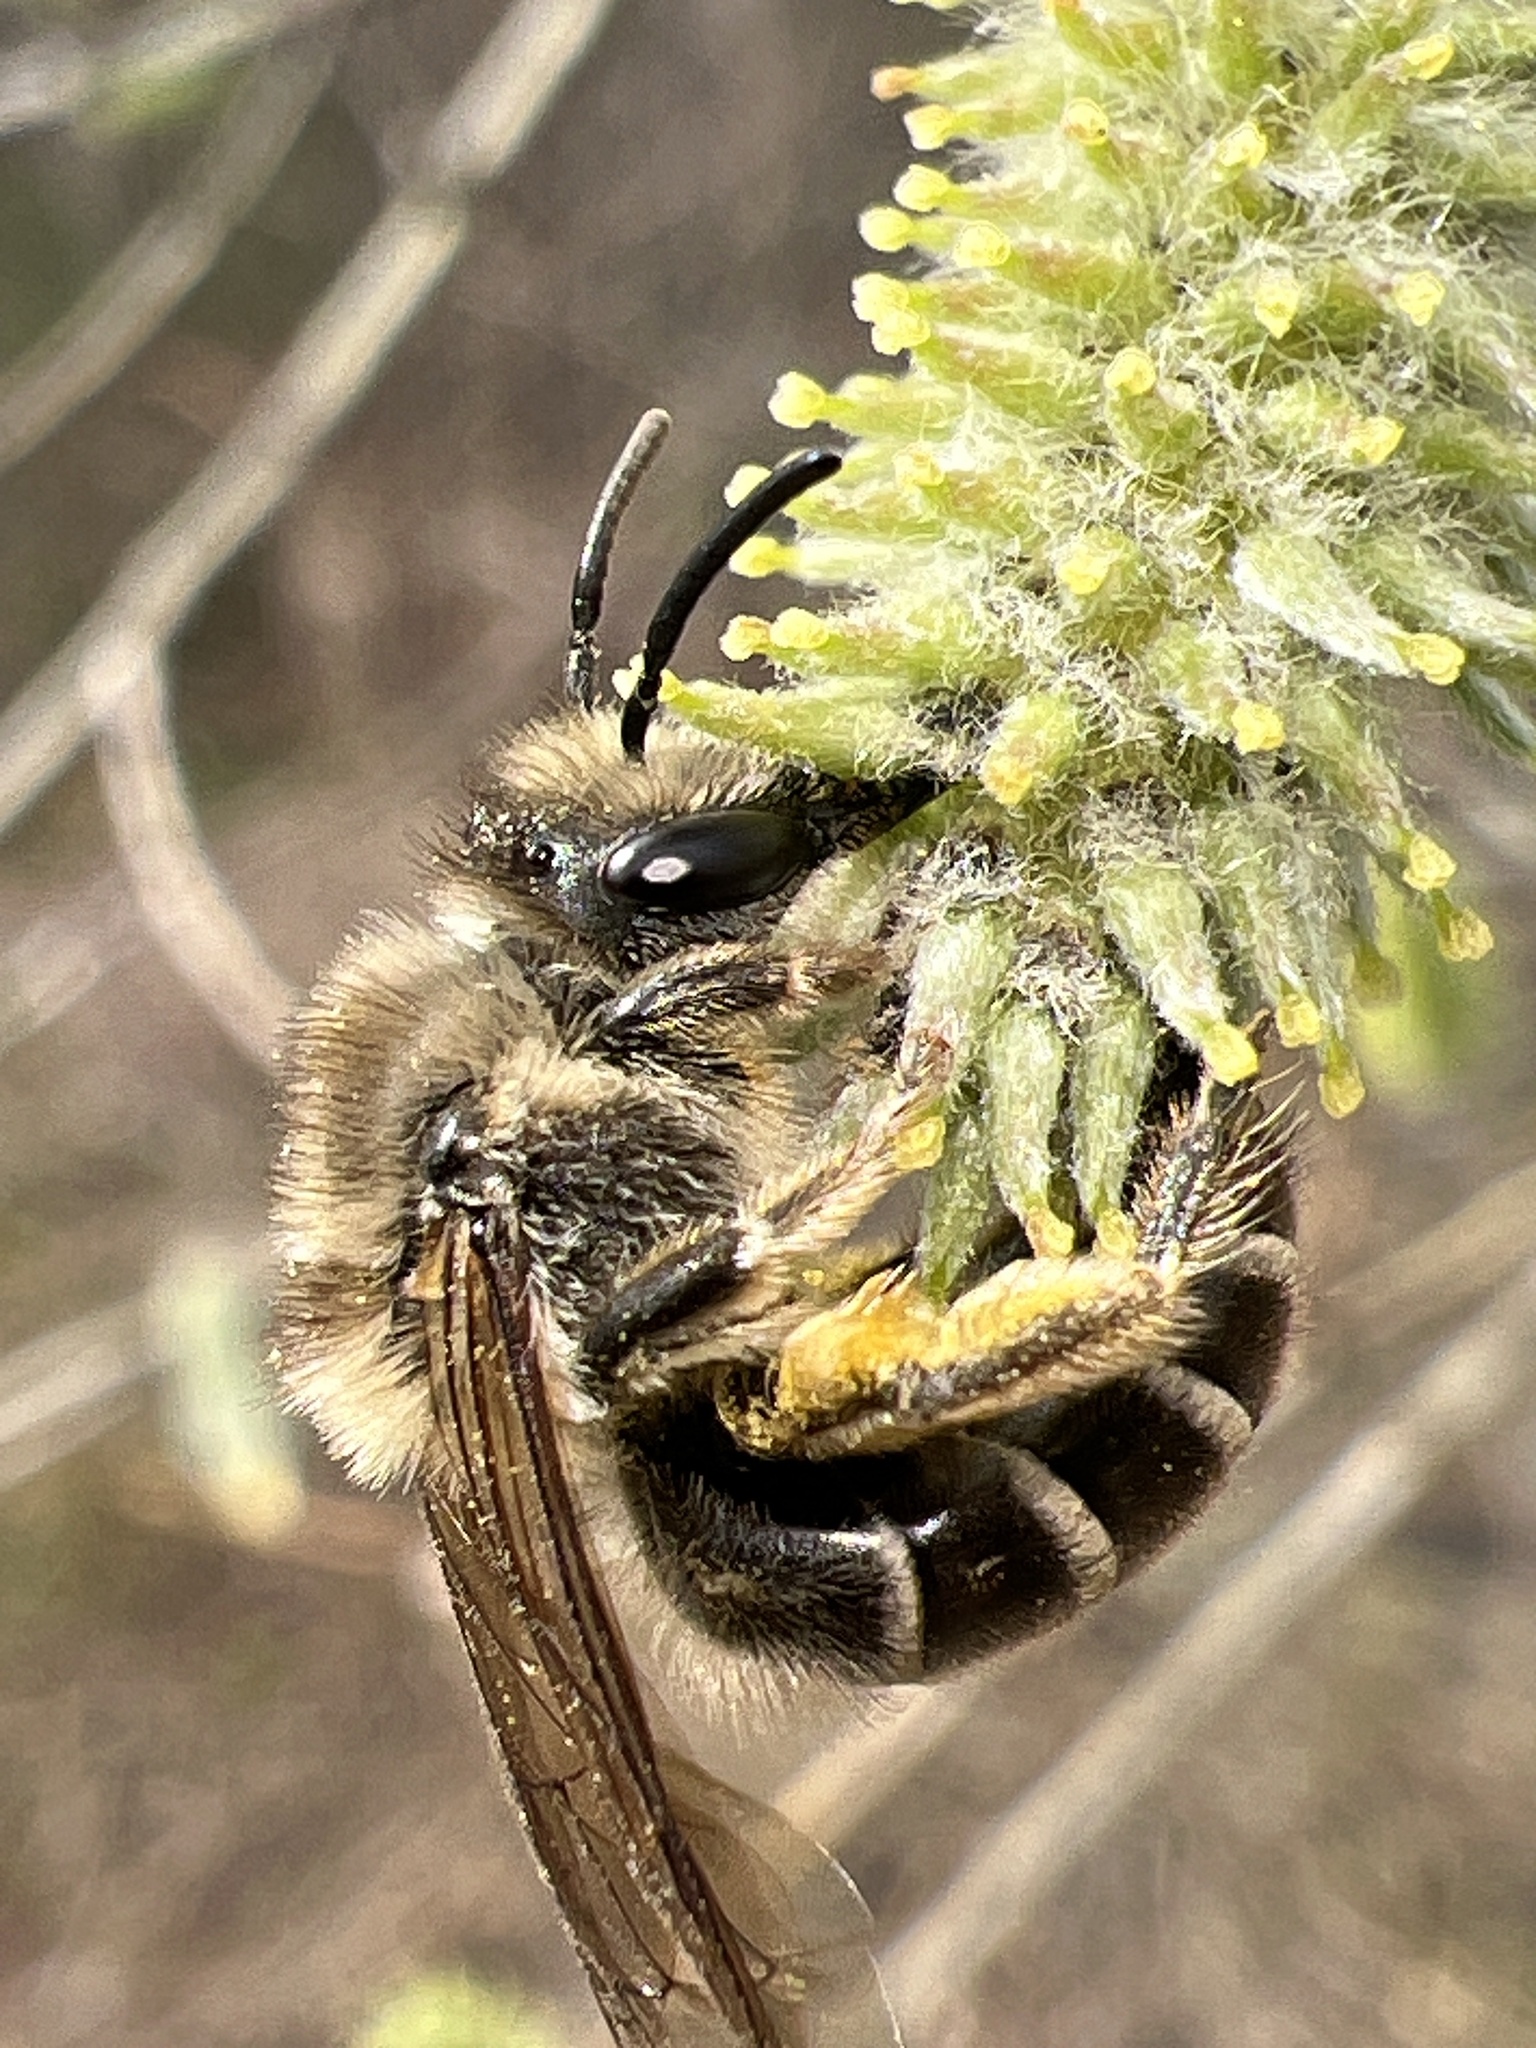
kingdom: Animalia
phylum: Arthropoda
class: Insecta
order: Hymenoptera
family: Colletidae
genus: Colletes
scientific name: Colletes inaequalis
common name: Unequal cellophane bee
